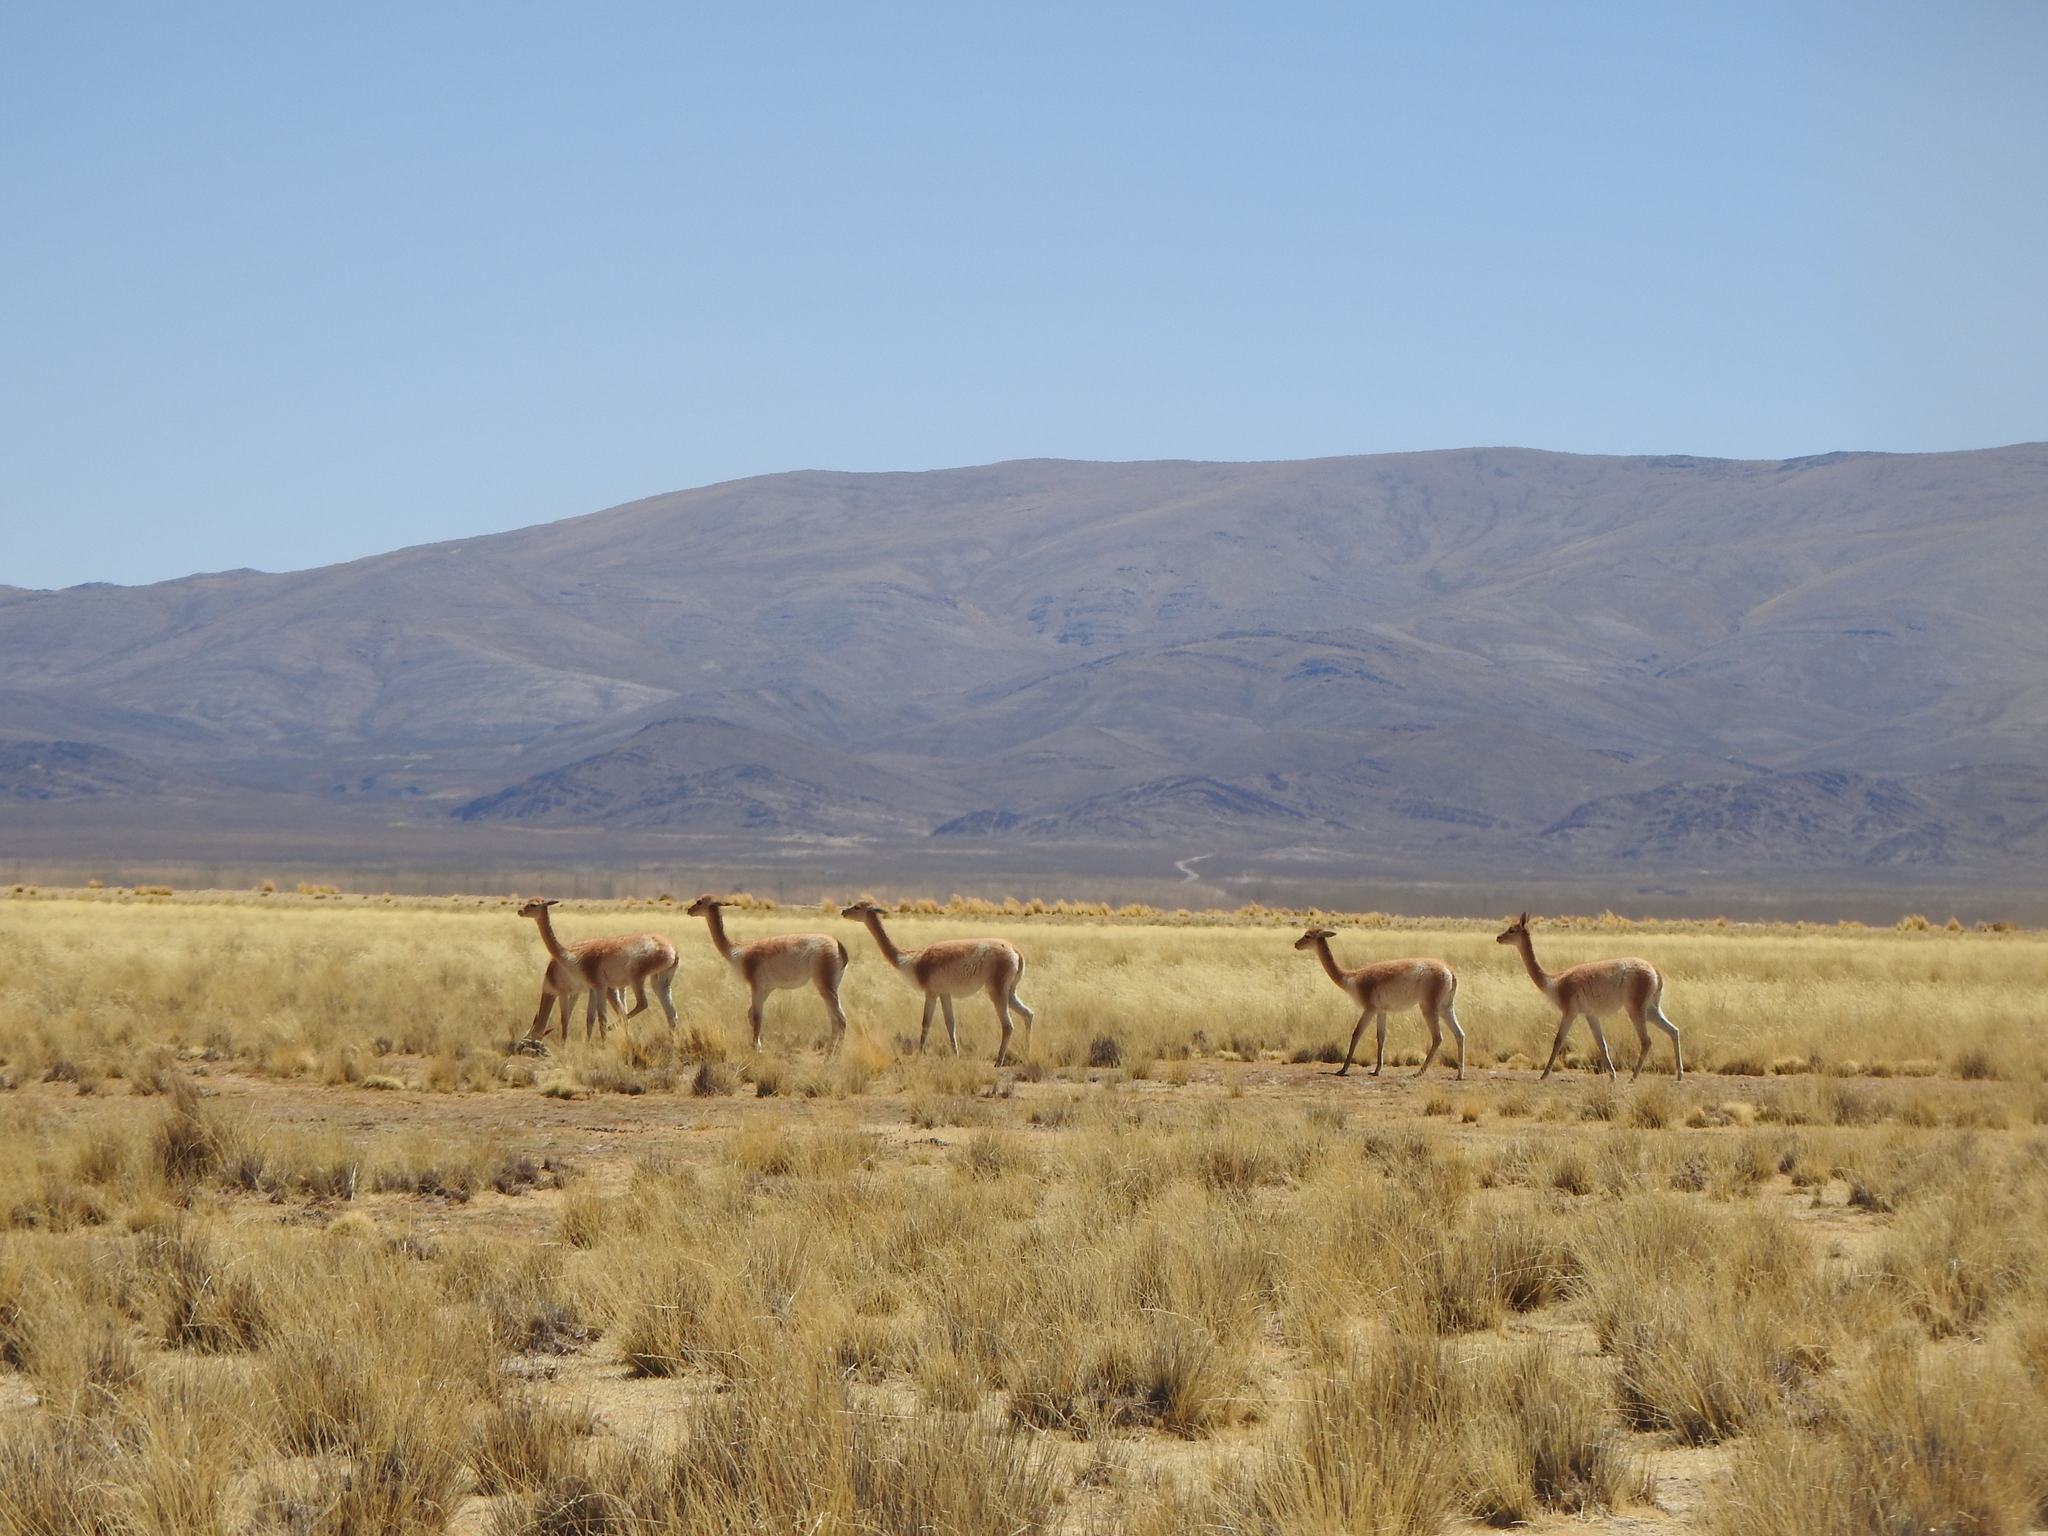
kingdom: Animalia
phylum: Chordata
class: Mammalia
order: Artiodactyla
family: Camelidae
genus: Vicugna
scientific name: Vicugna vicugna
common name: Vicugna
